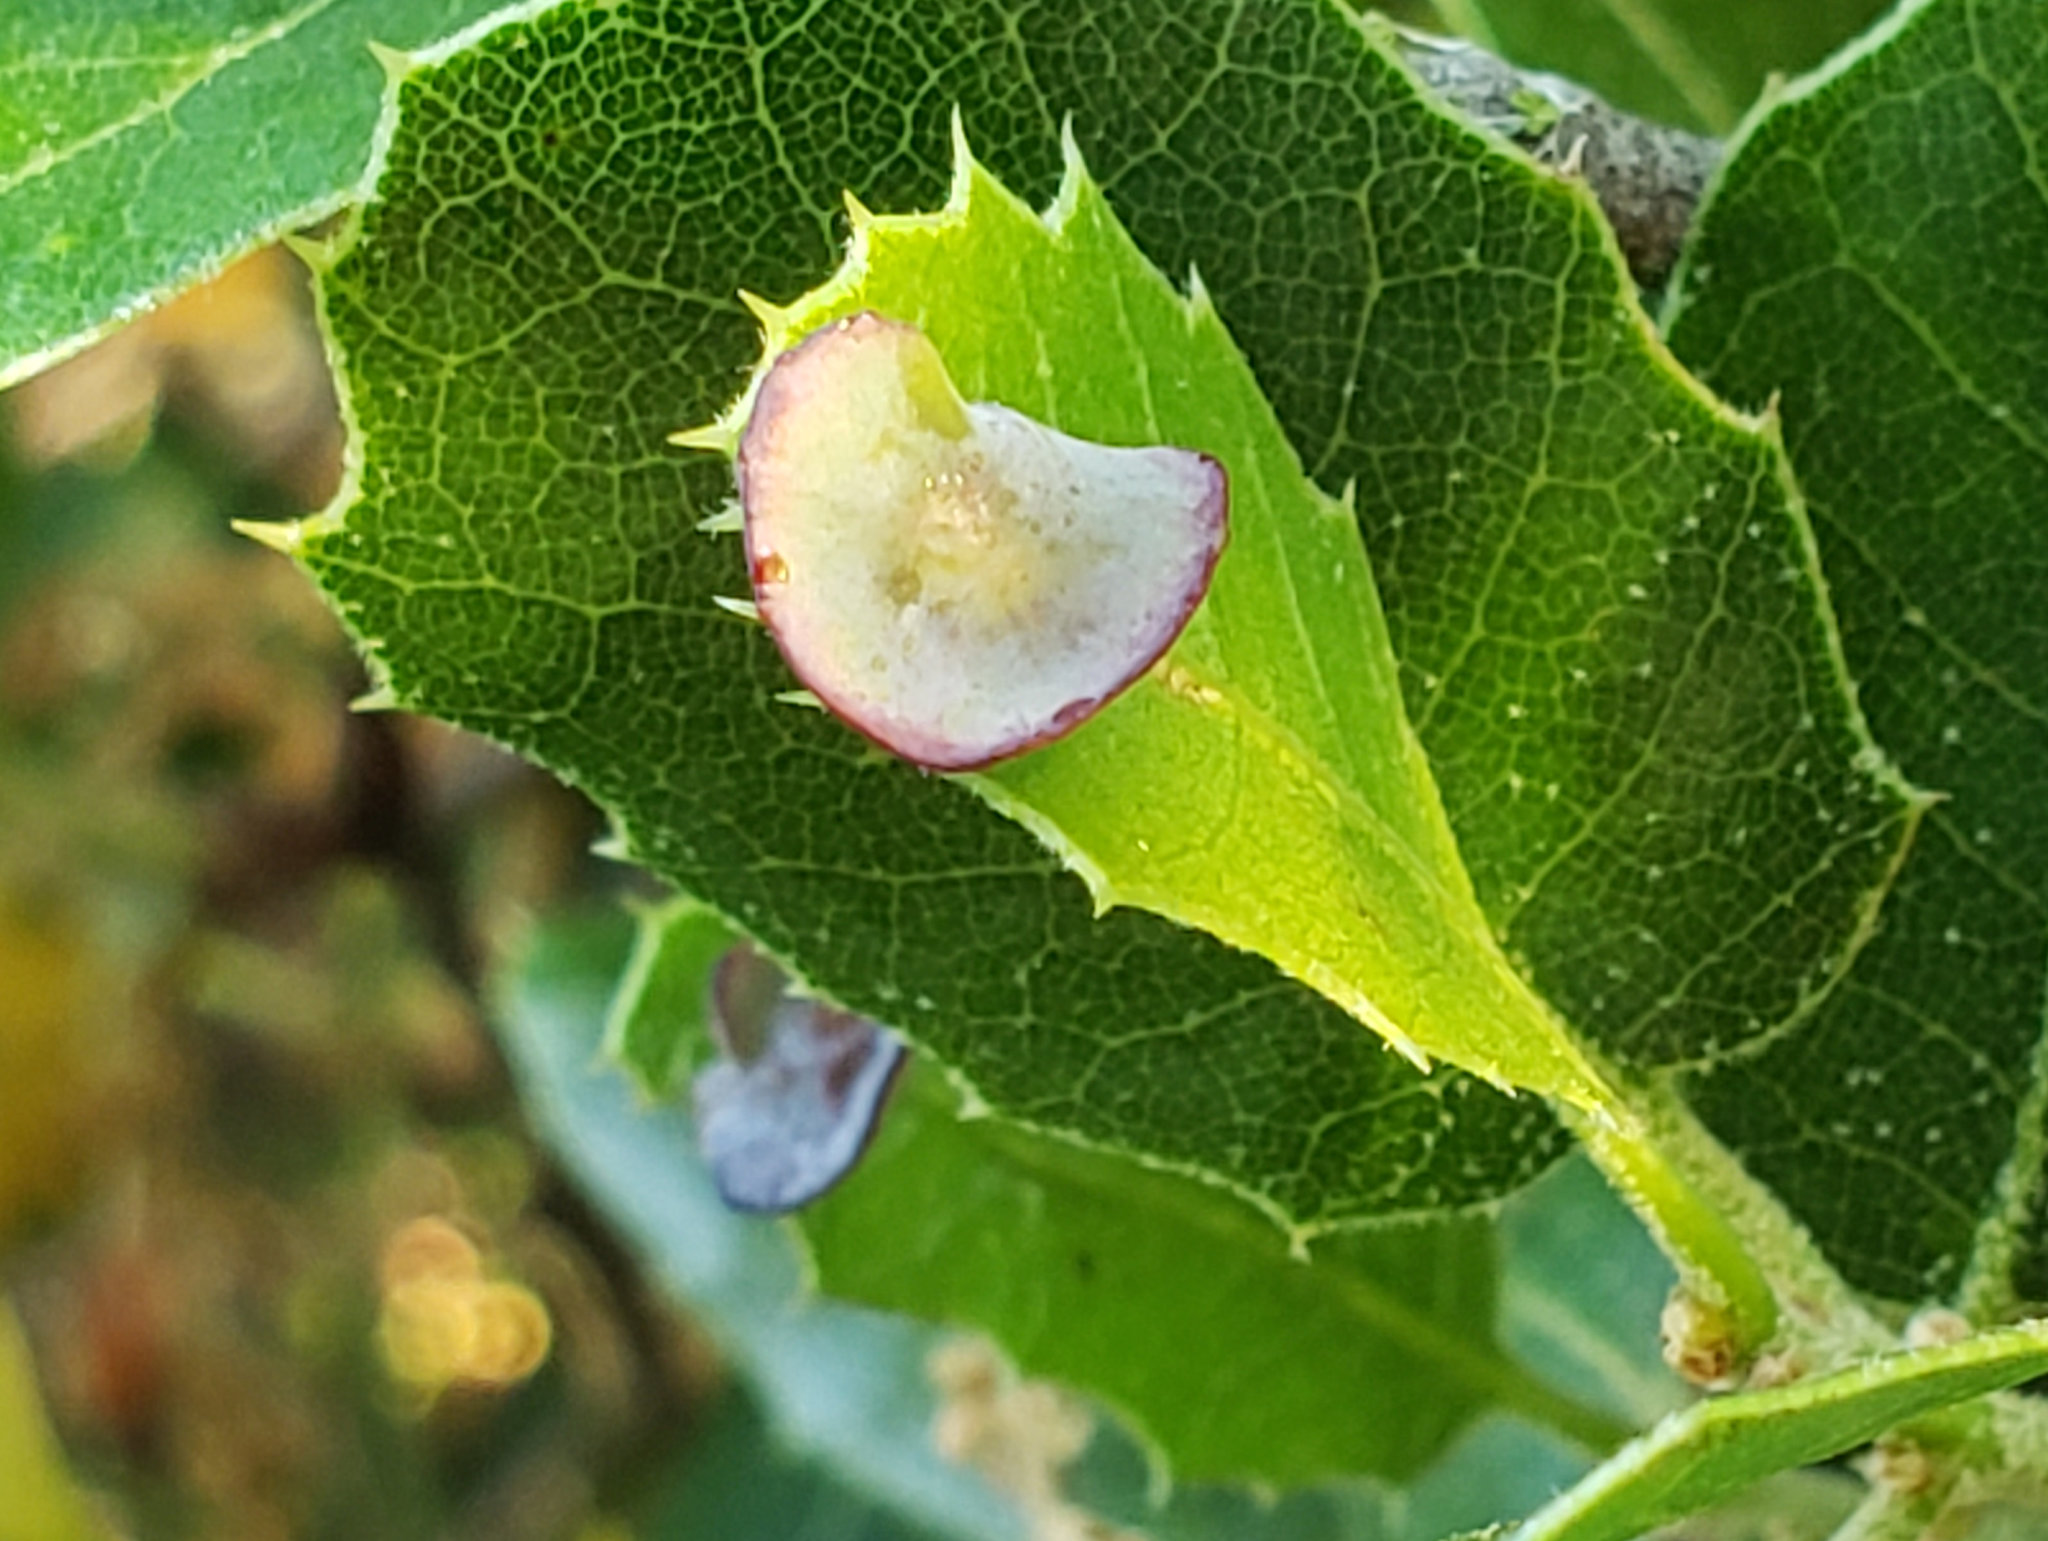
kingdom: Animalia
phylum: Arthropoda
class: Insecta
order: Hymenoptera
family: Cynipidae
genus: Amphibolips
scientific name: Amphibolips quercuspomiformis
